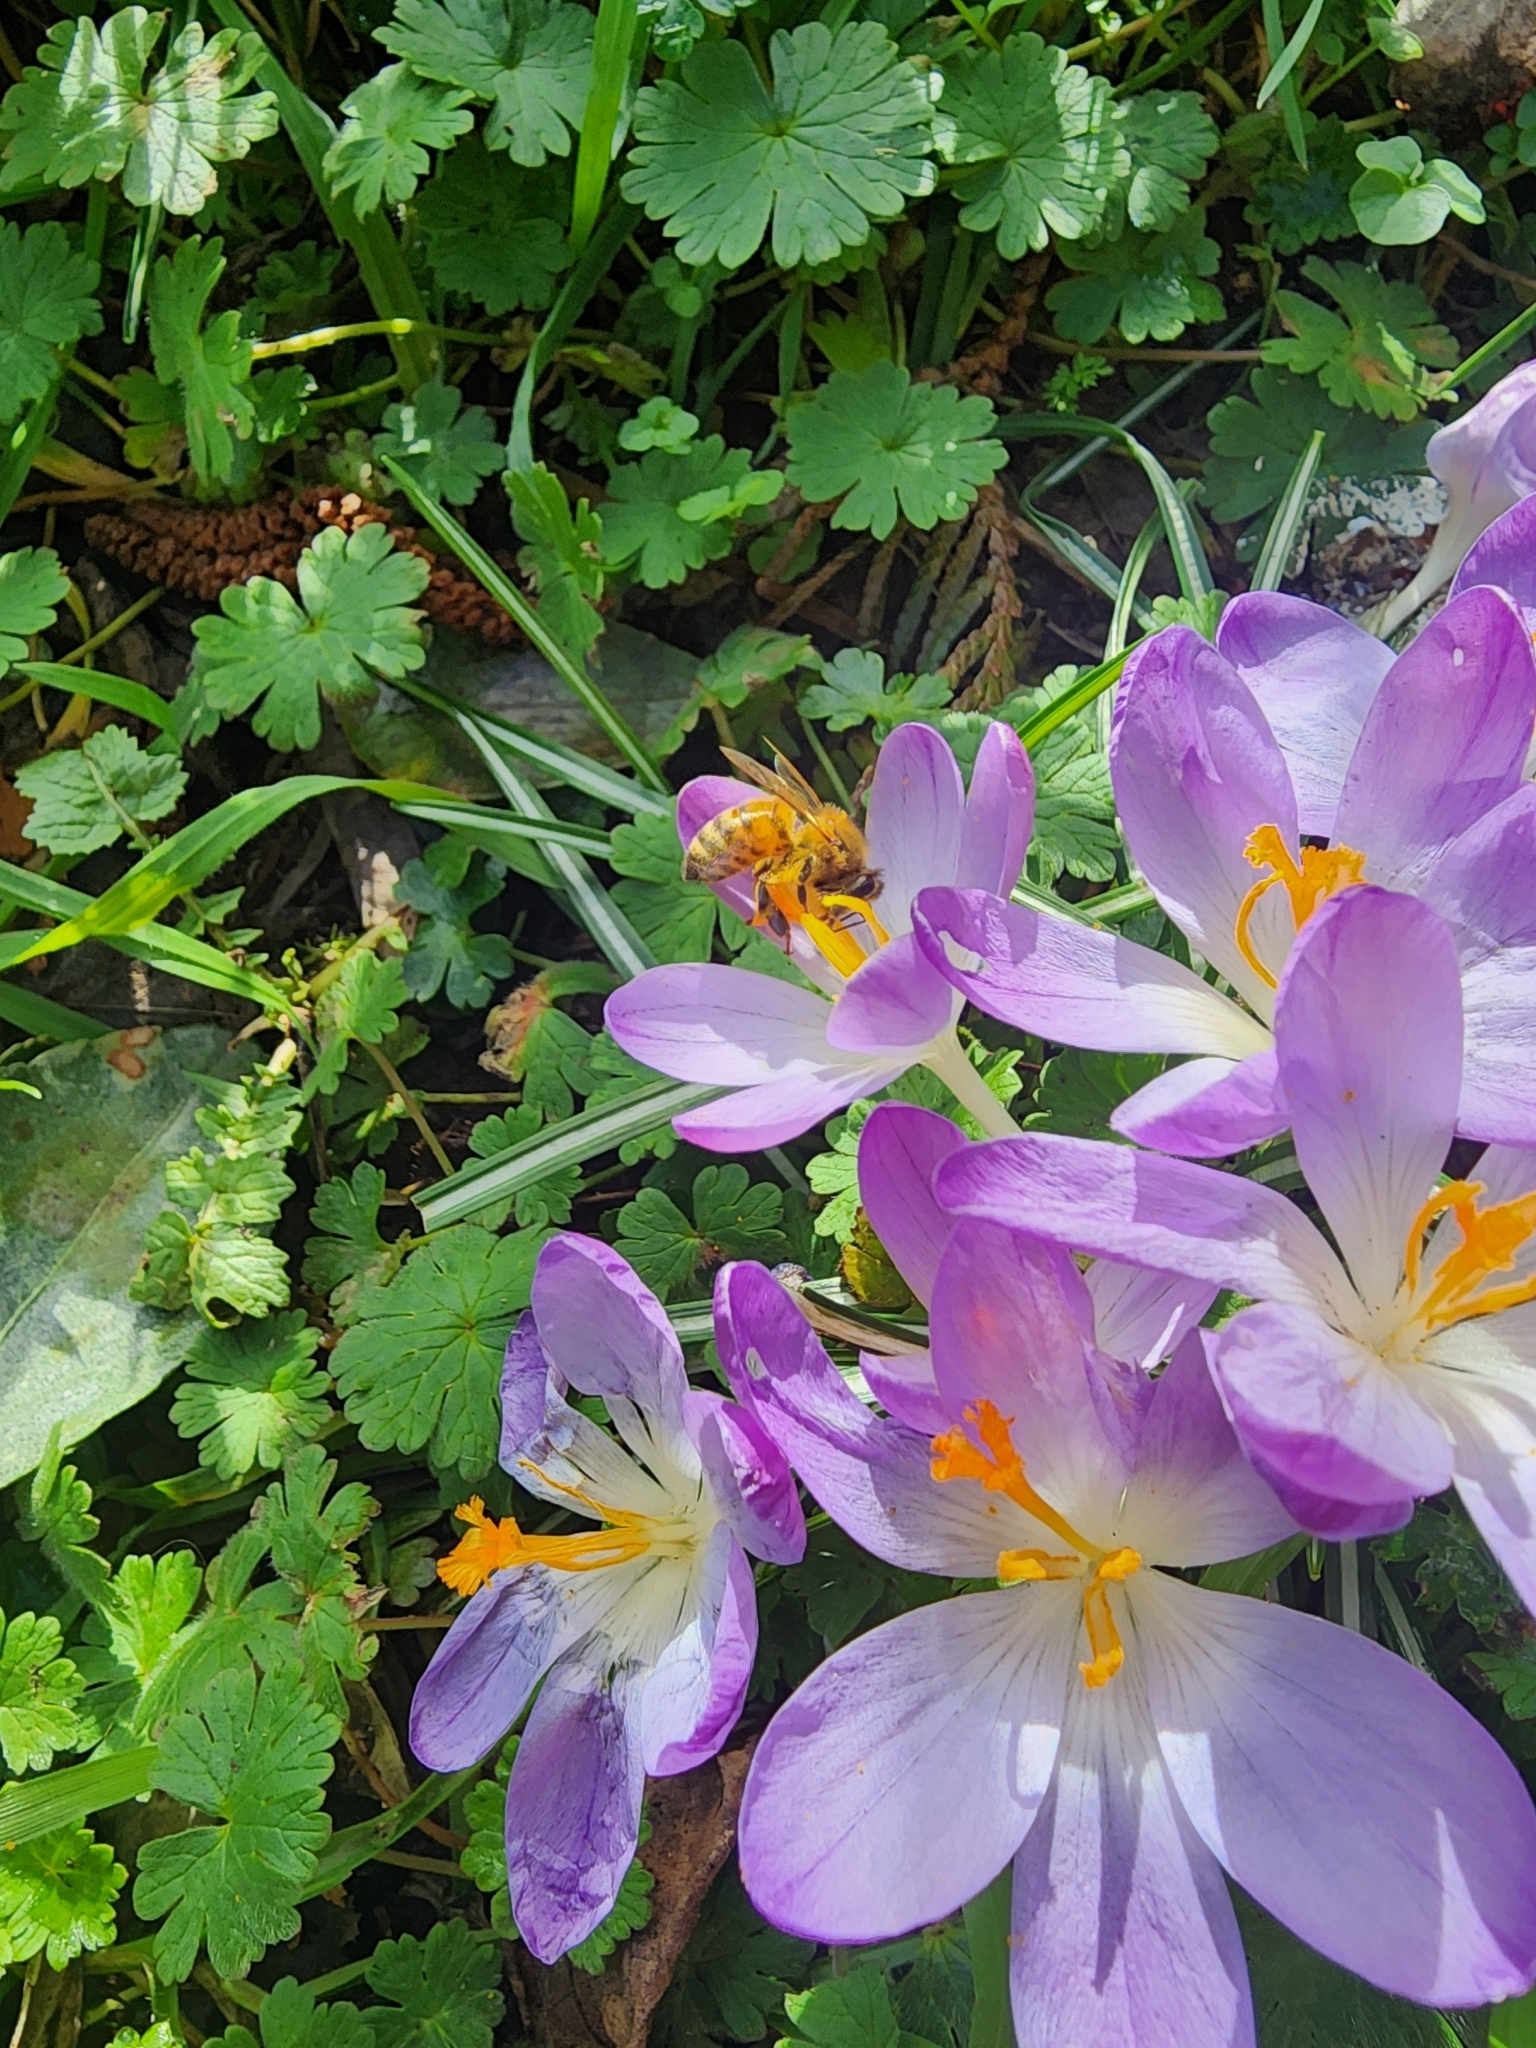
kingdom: Animalia
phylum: Arthropoda
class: Insecta
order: Hymenoptera
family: Apidae
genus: Apis
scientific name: Apis mellifera
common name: Honey bee
